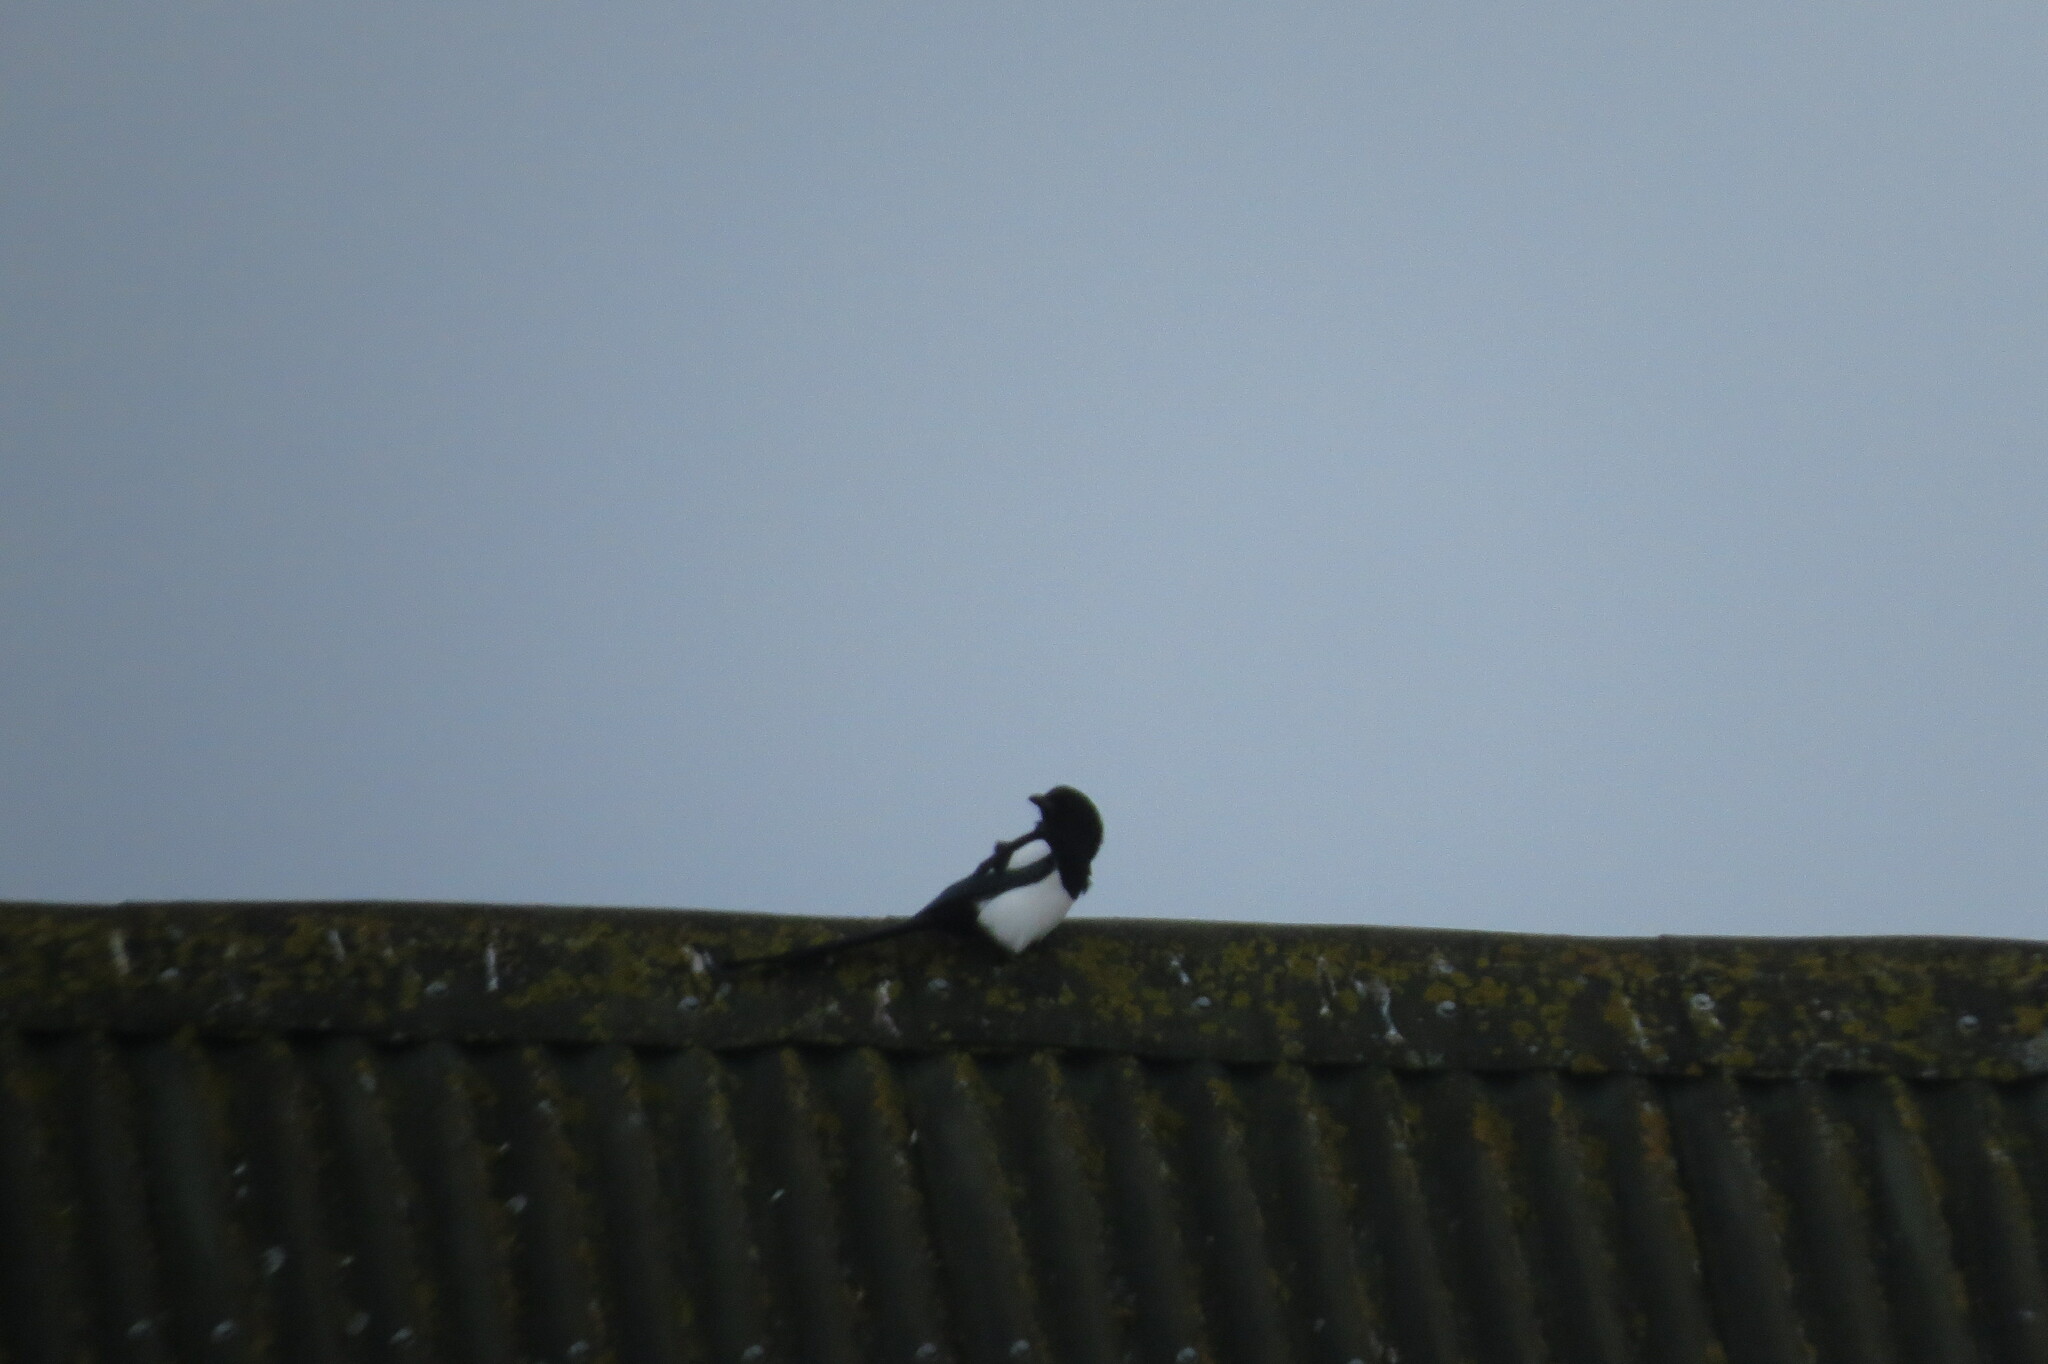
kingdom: Animalia
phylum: Chordata
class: Aves
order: Passeriformes
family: Corvidae
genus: Pica
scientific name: Pica pica
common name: Eurasian magpie
